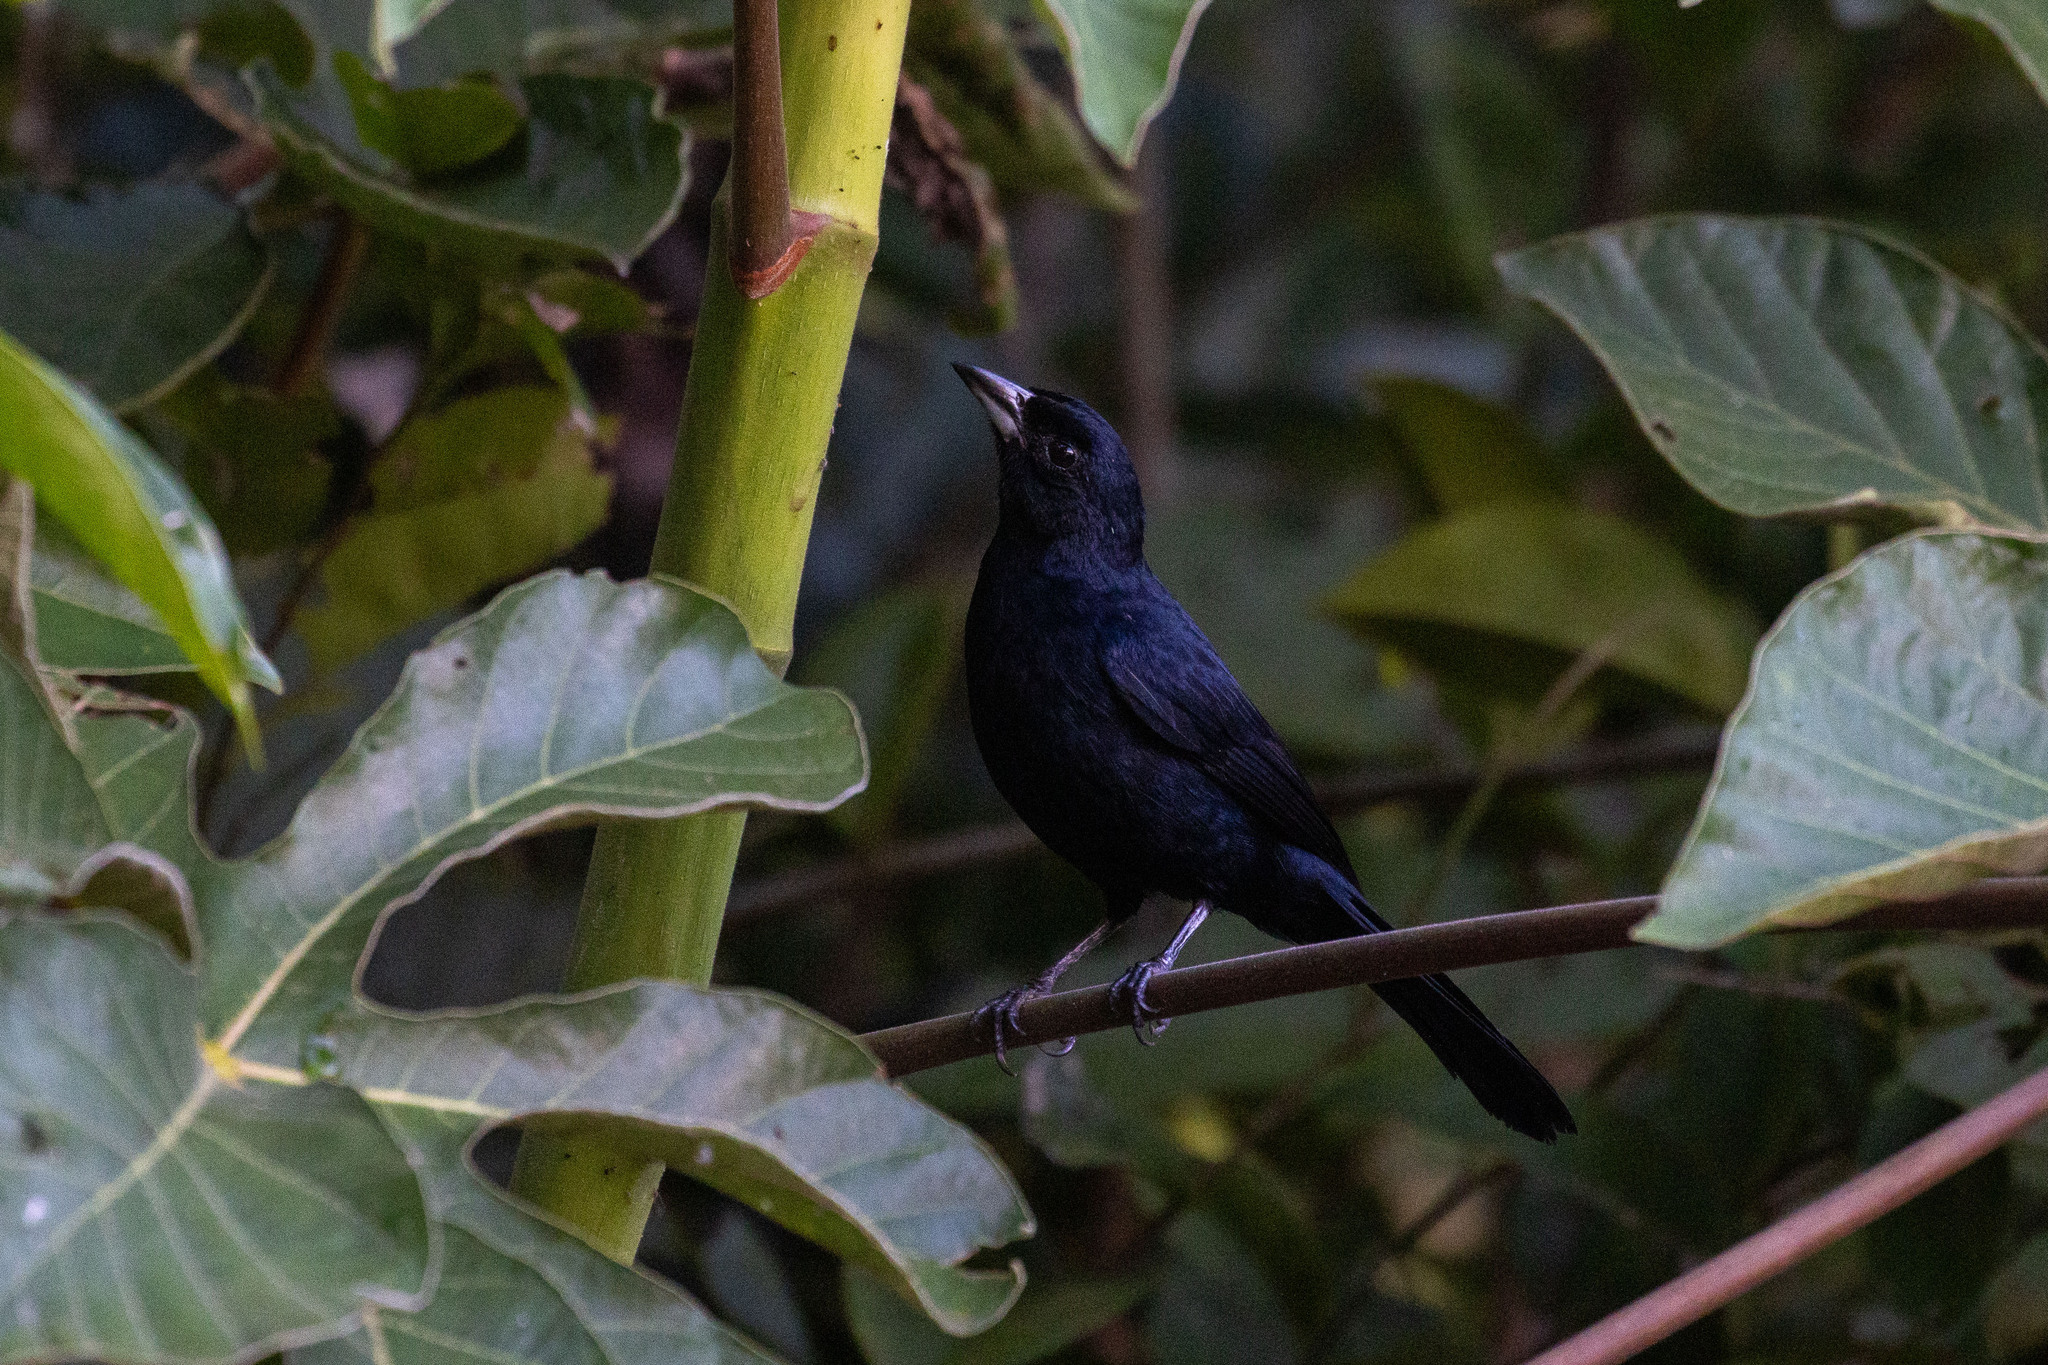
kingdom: Animalia
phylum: Chordata
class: Aves
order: Passeriformes
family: Thraupidae
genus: Tachyphonus
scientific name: Tachyphonus rufus
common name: White-lined tanager
